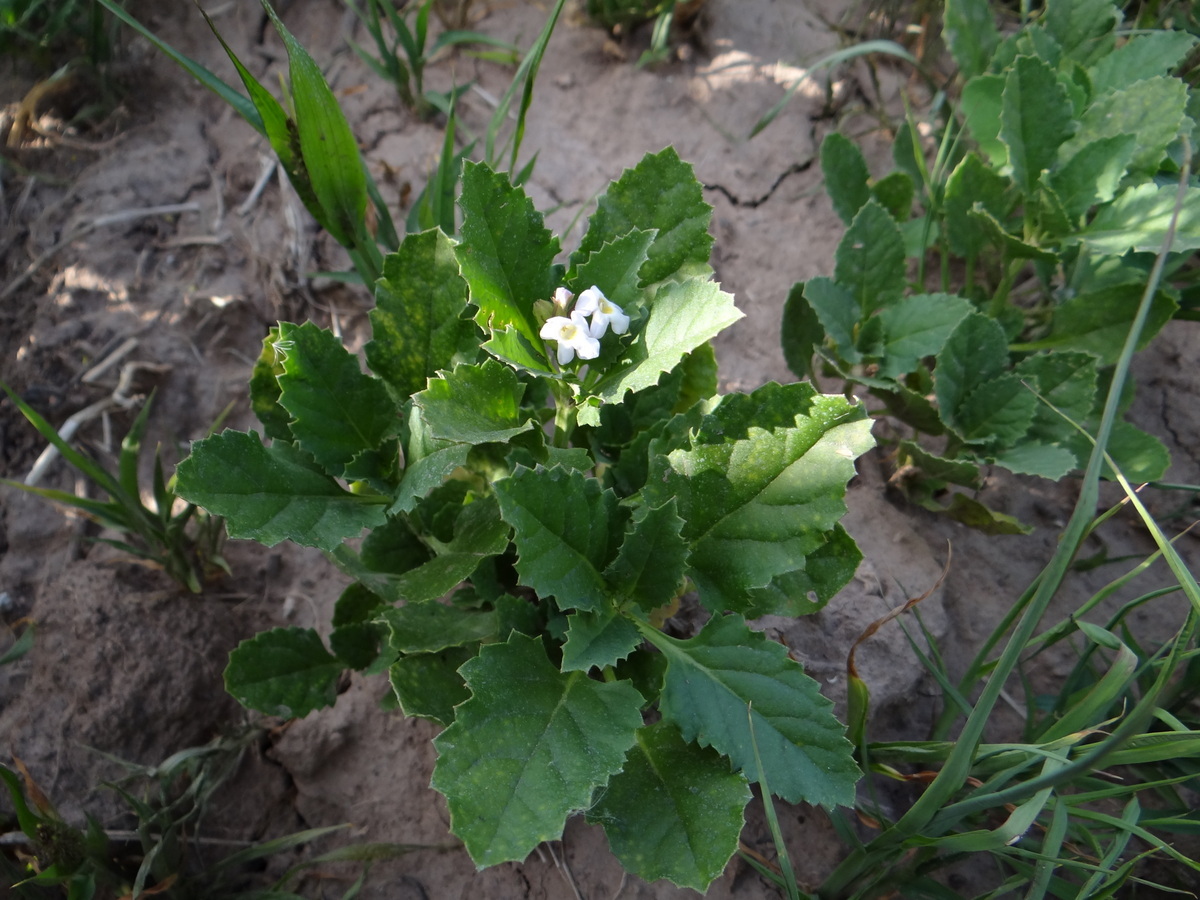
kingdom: Plantae
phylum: Tracheophyta
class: Magnoliopsida
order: Lamiales
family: Verbenaceae
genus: Pitraea
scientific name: Pitraea cuneato-ovata
